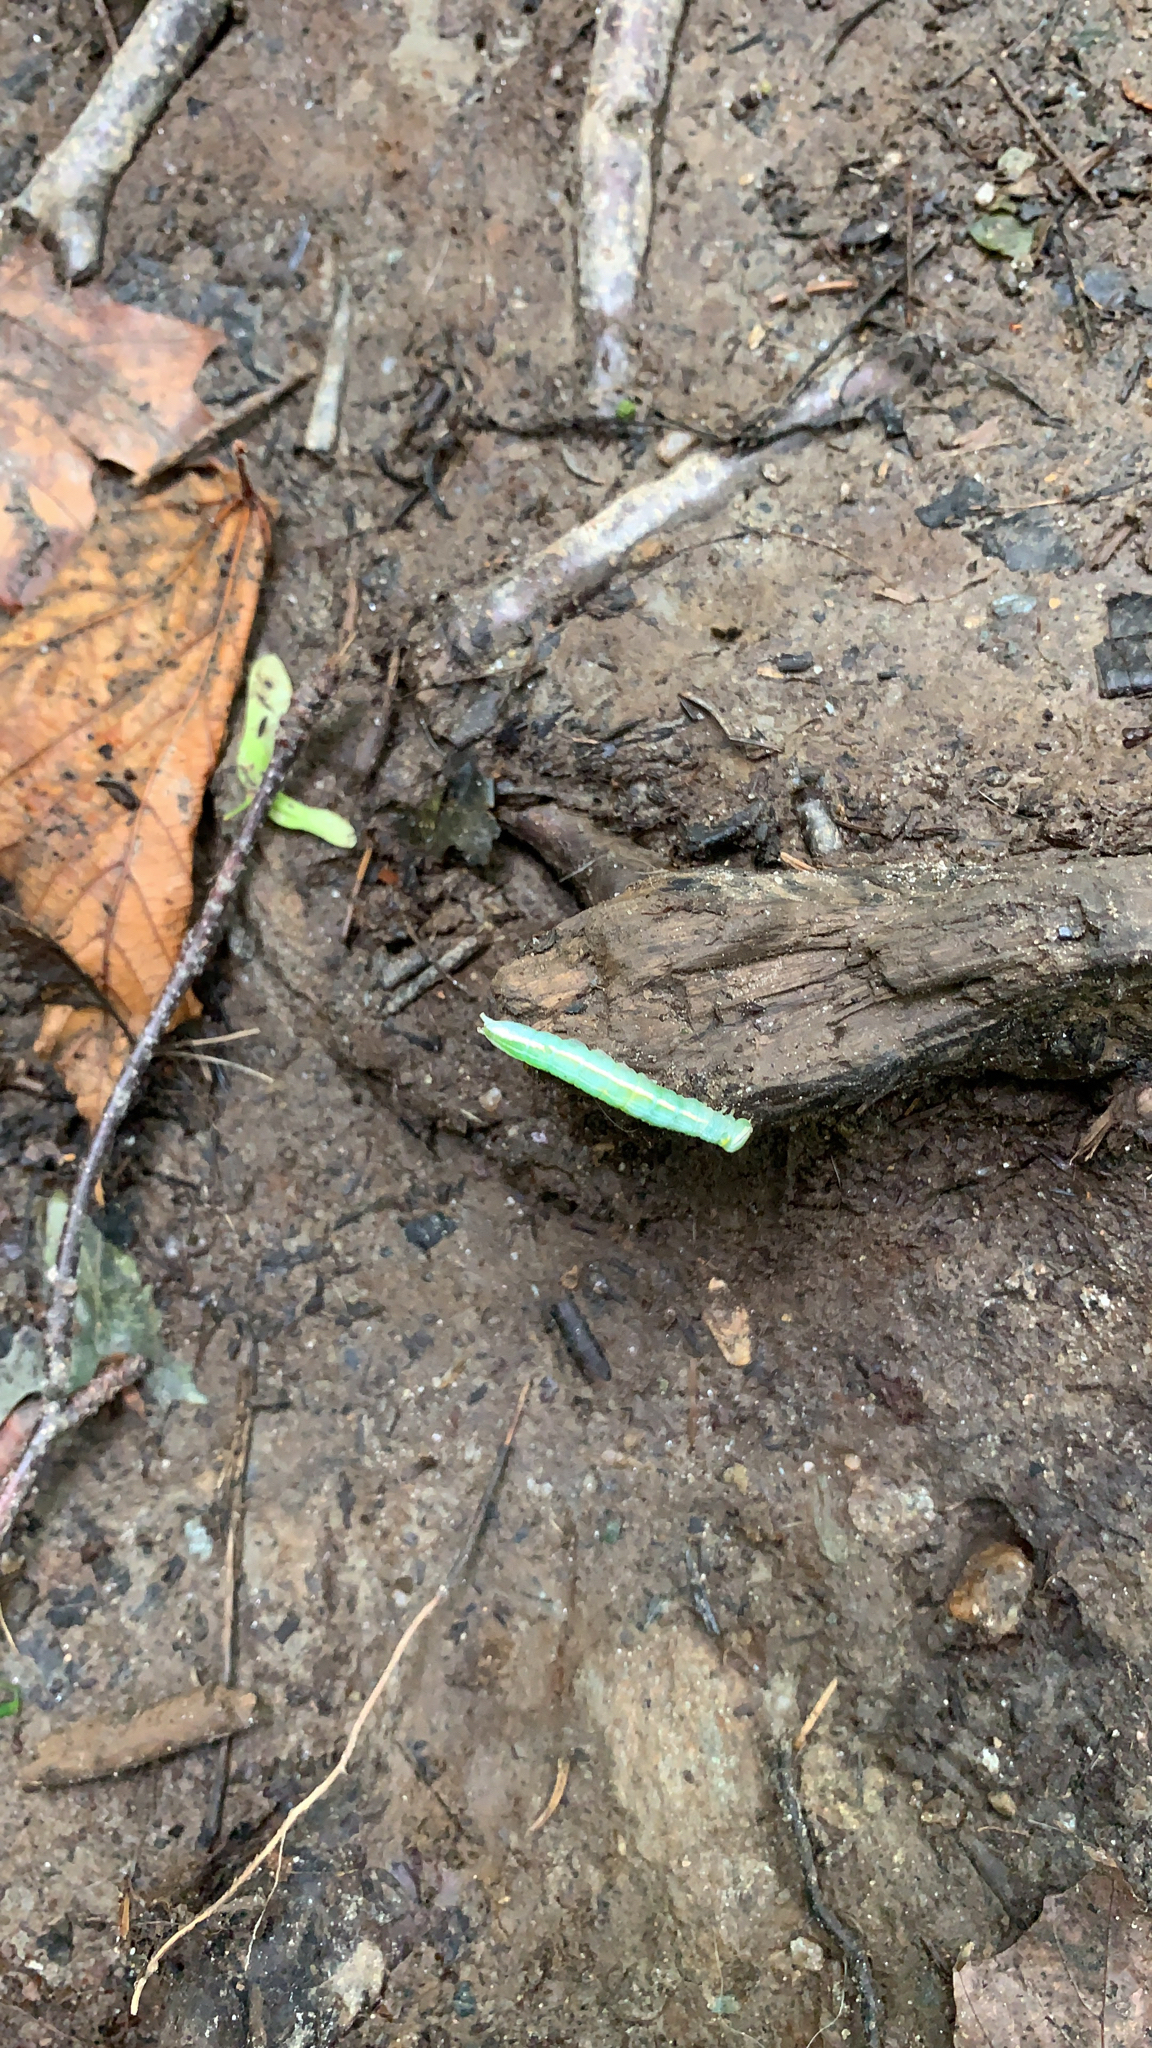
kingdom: Animalia
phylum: Arthropoda
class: Insecta
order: Lepidoptera
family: Notodontidae
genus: Disphragis
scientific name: Disphragis Cecrita guttivitta
